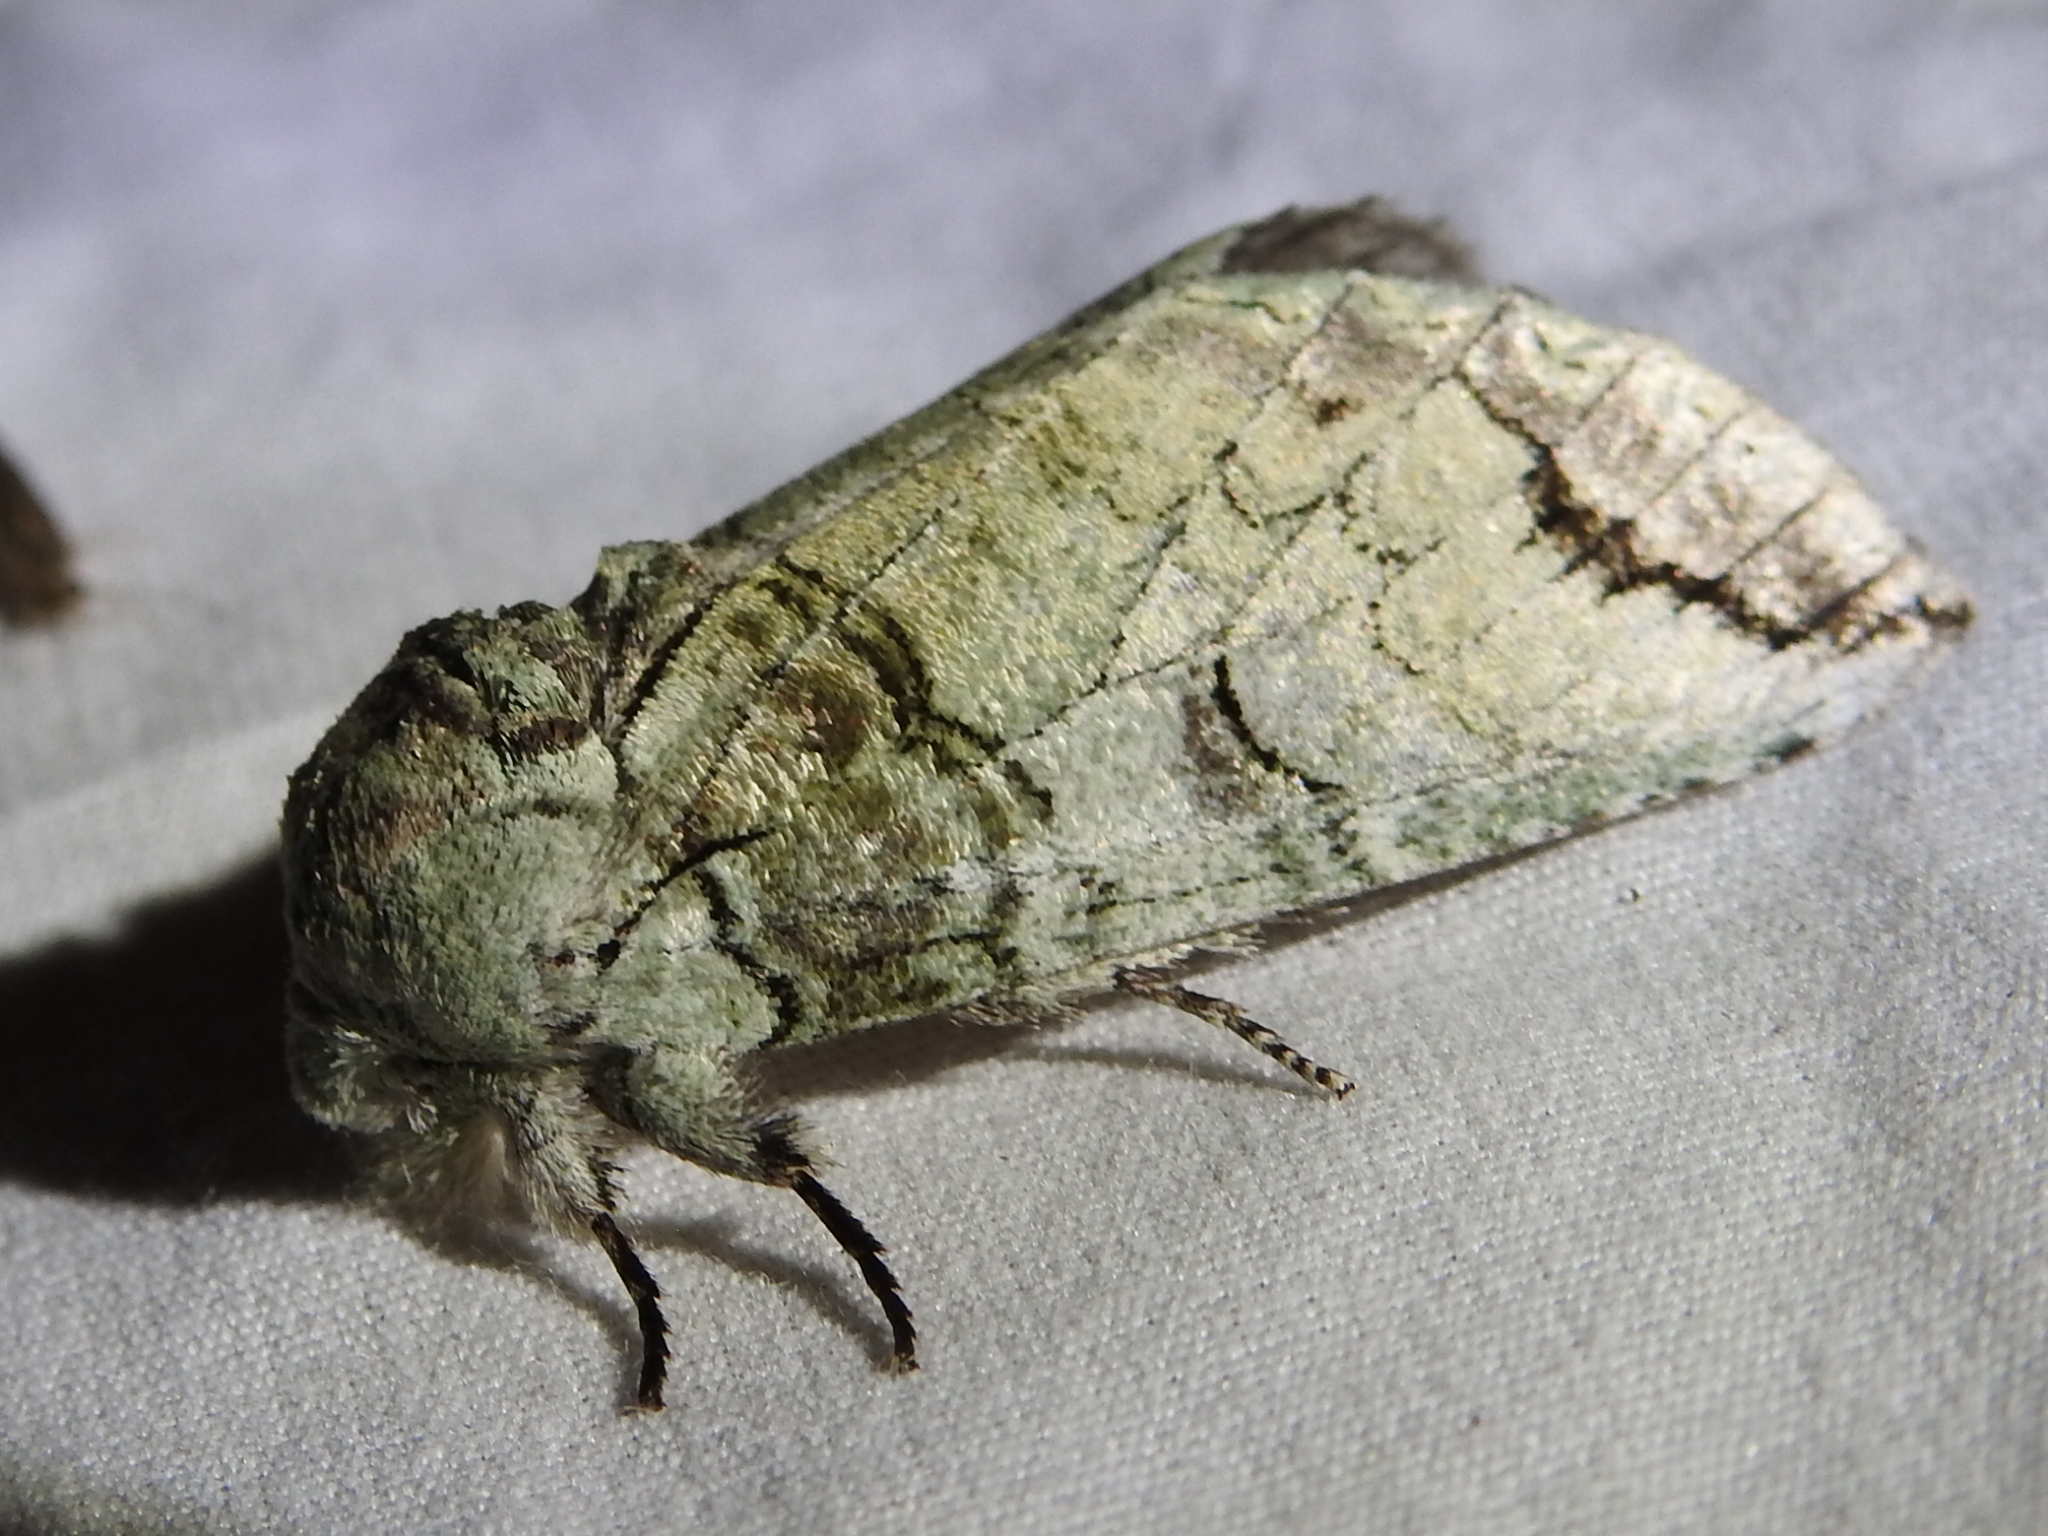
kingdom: Animalia
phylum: Arthropoda
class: Insecta
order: Lepidoptera
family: Notodontidae
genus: Heterocampa
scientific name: Heterocampa astartoides
